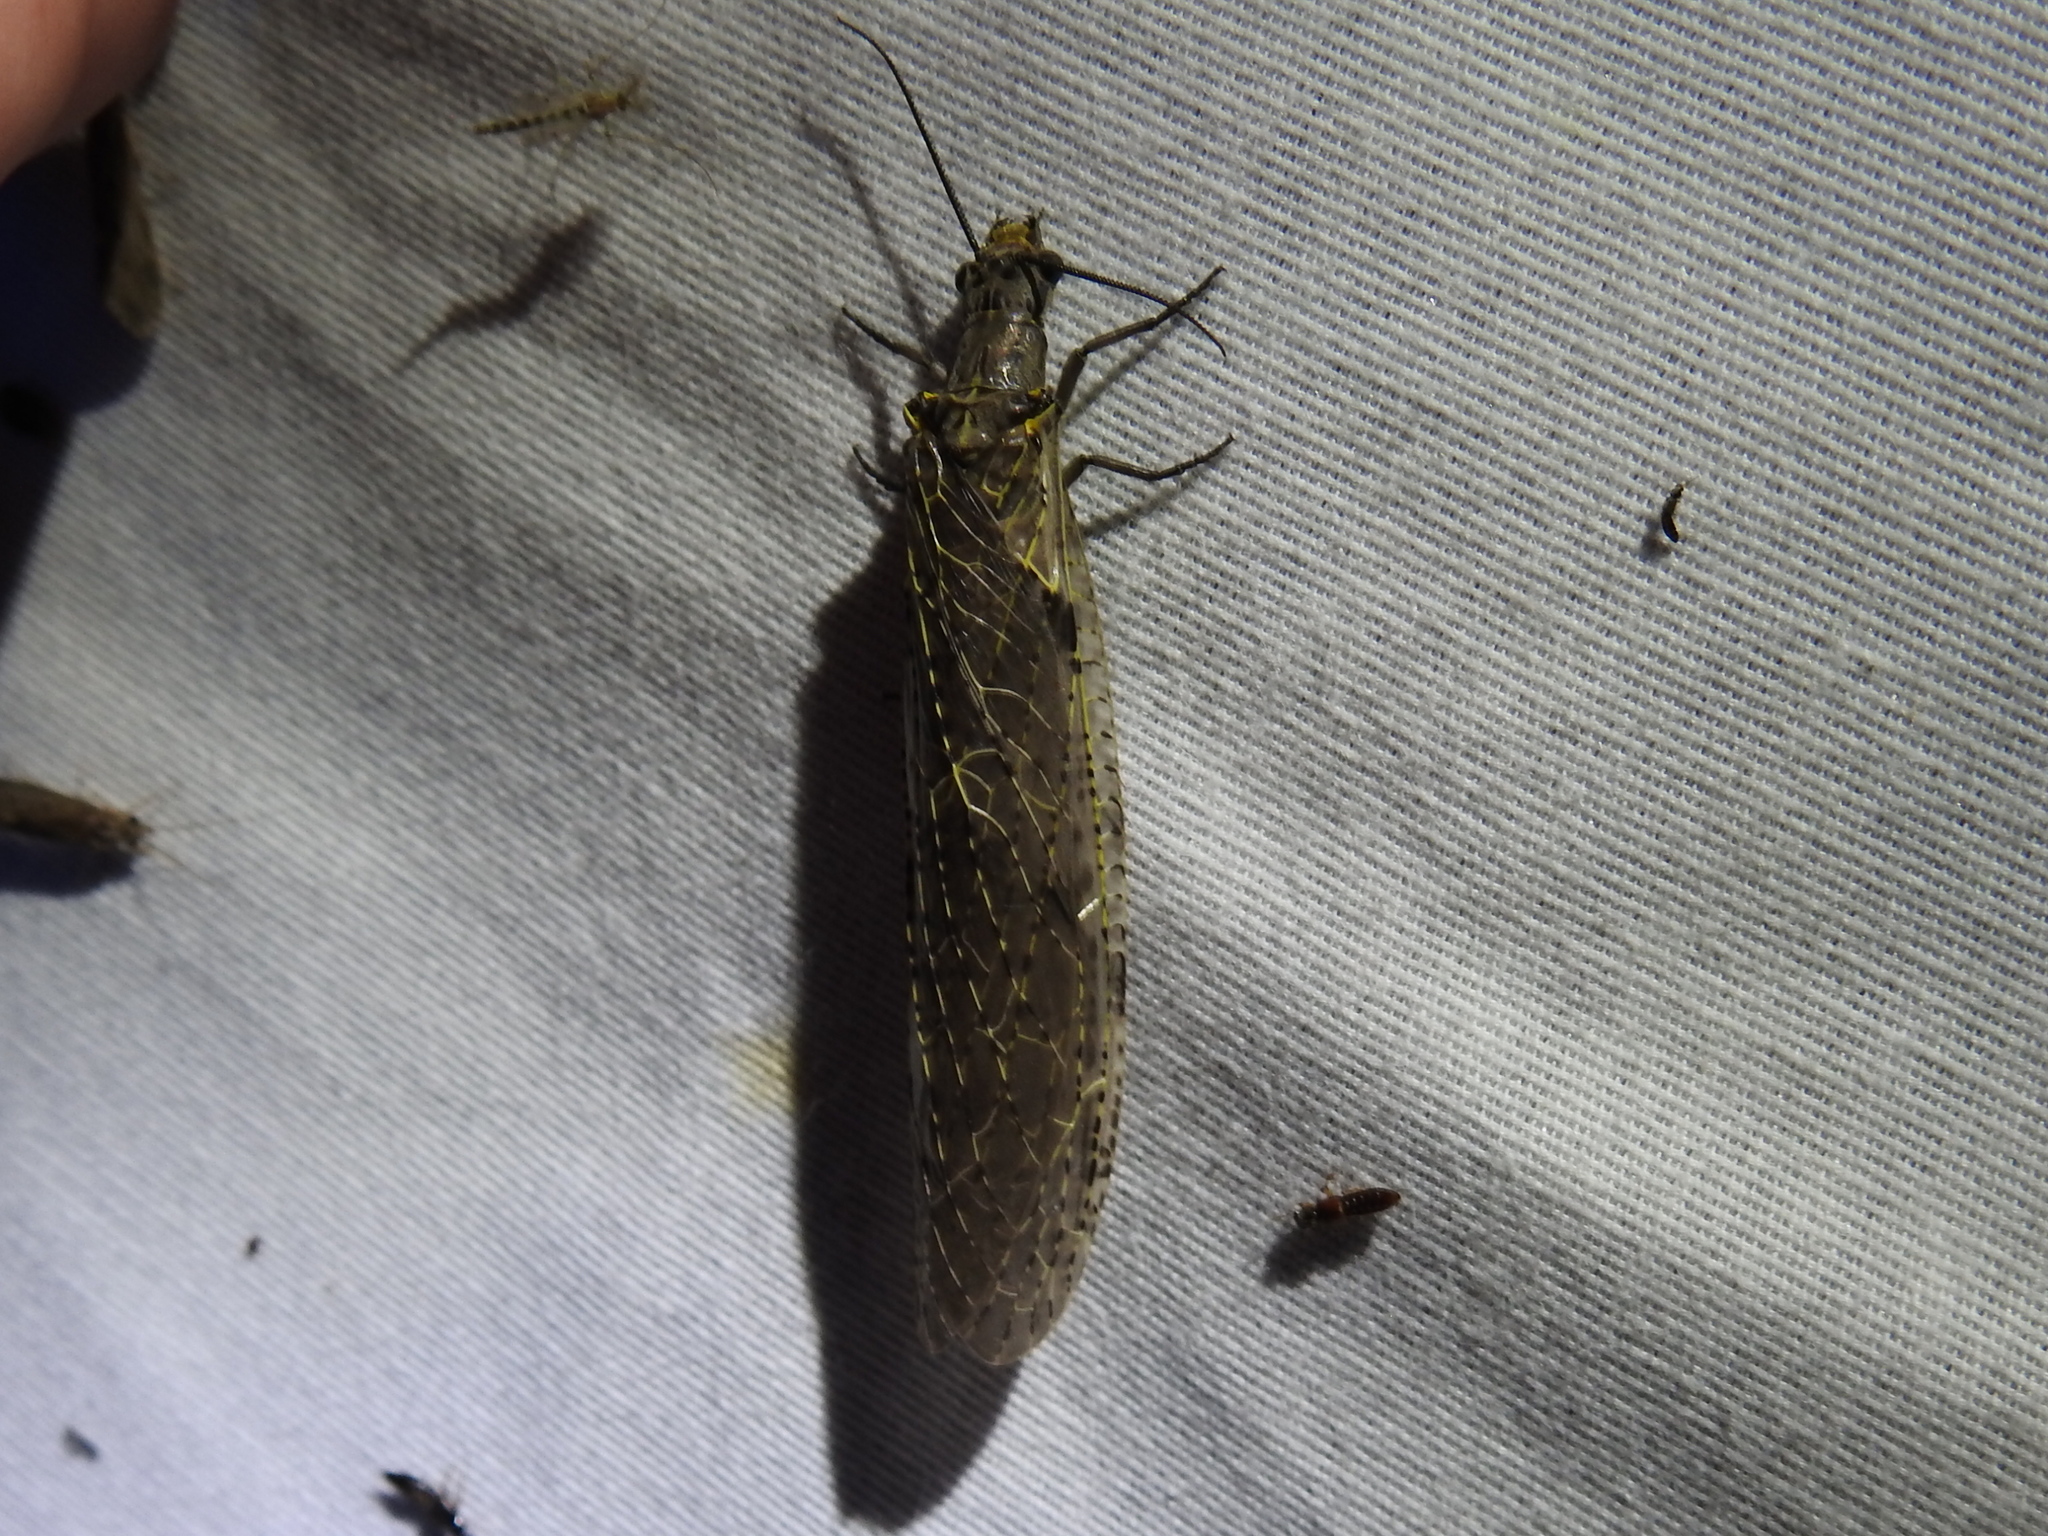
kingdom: Animalia
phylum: Arthropoda
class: Insecta
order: Megaloptera
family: Corydalidae
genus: Chauliodes
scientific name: Chauliodes rastricornis
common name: Spring fishfly
